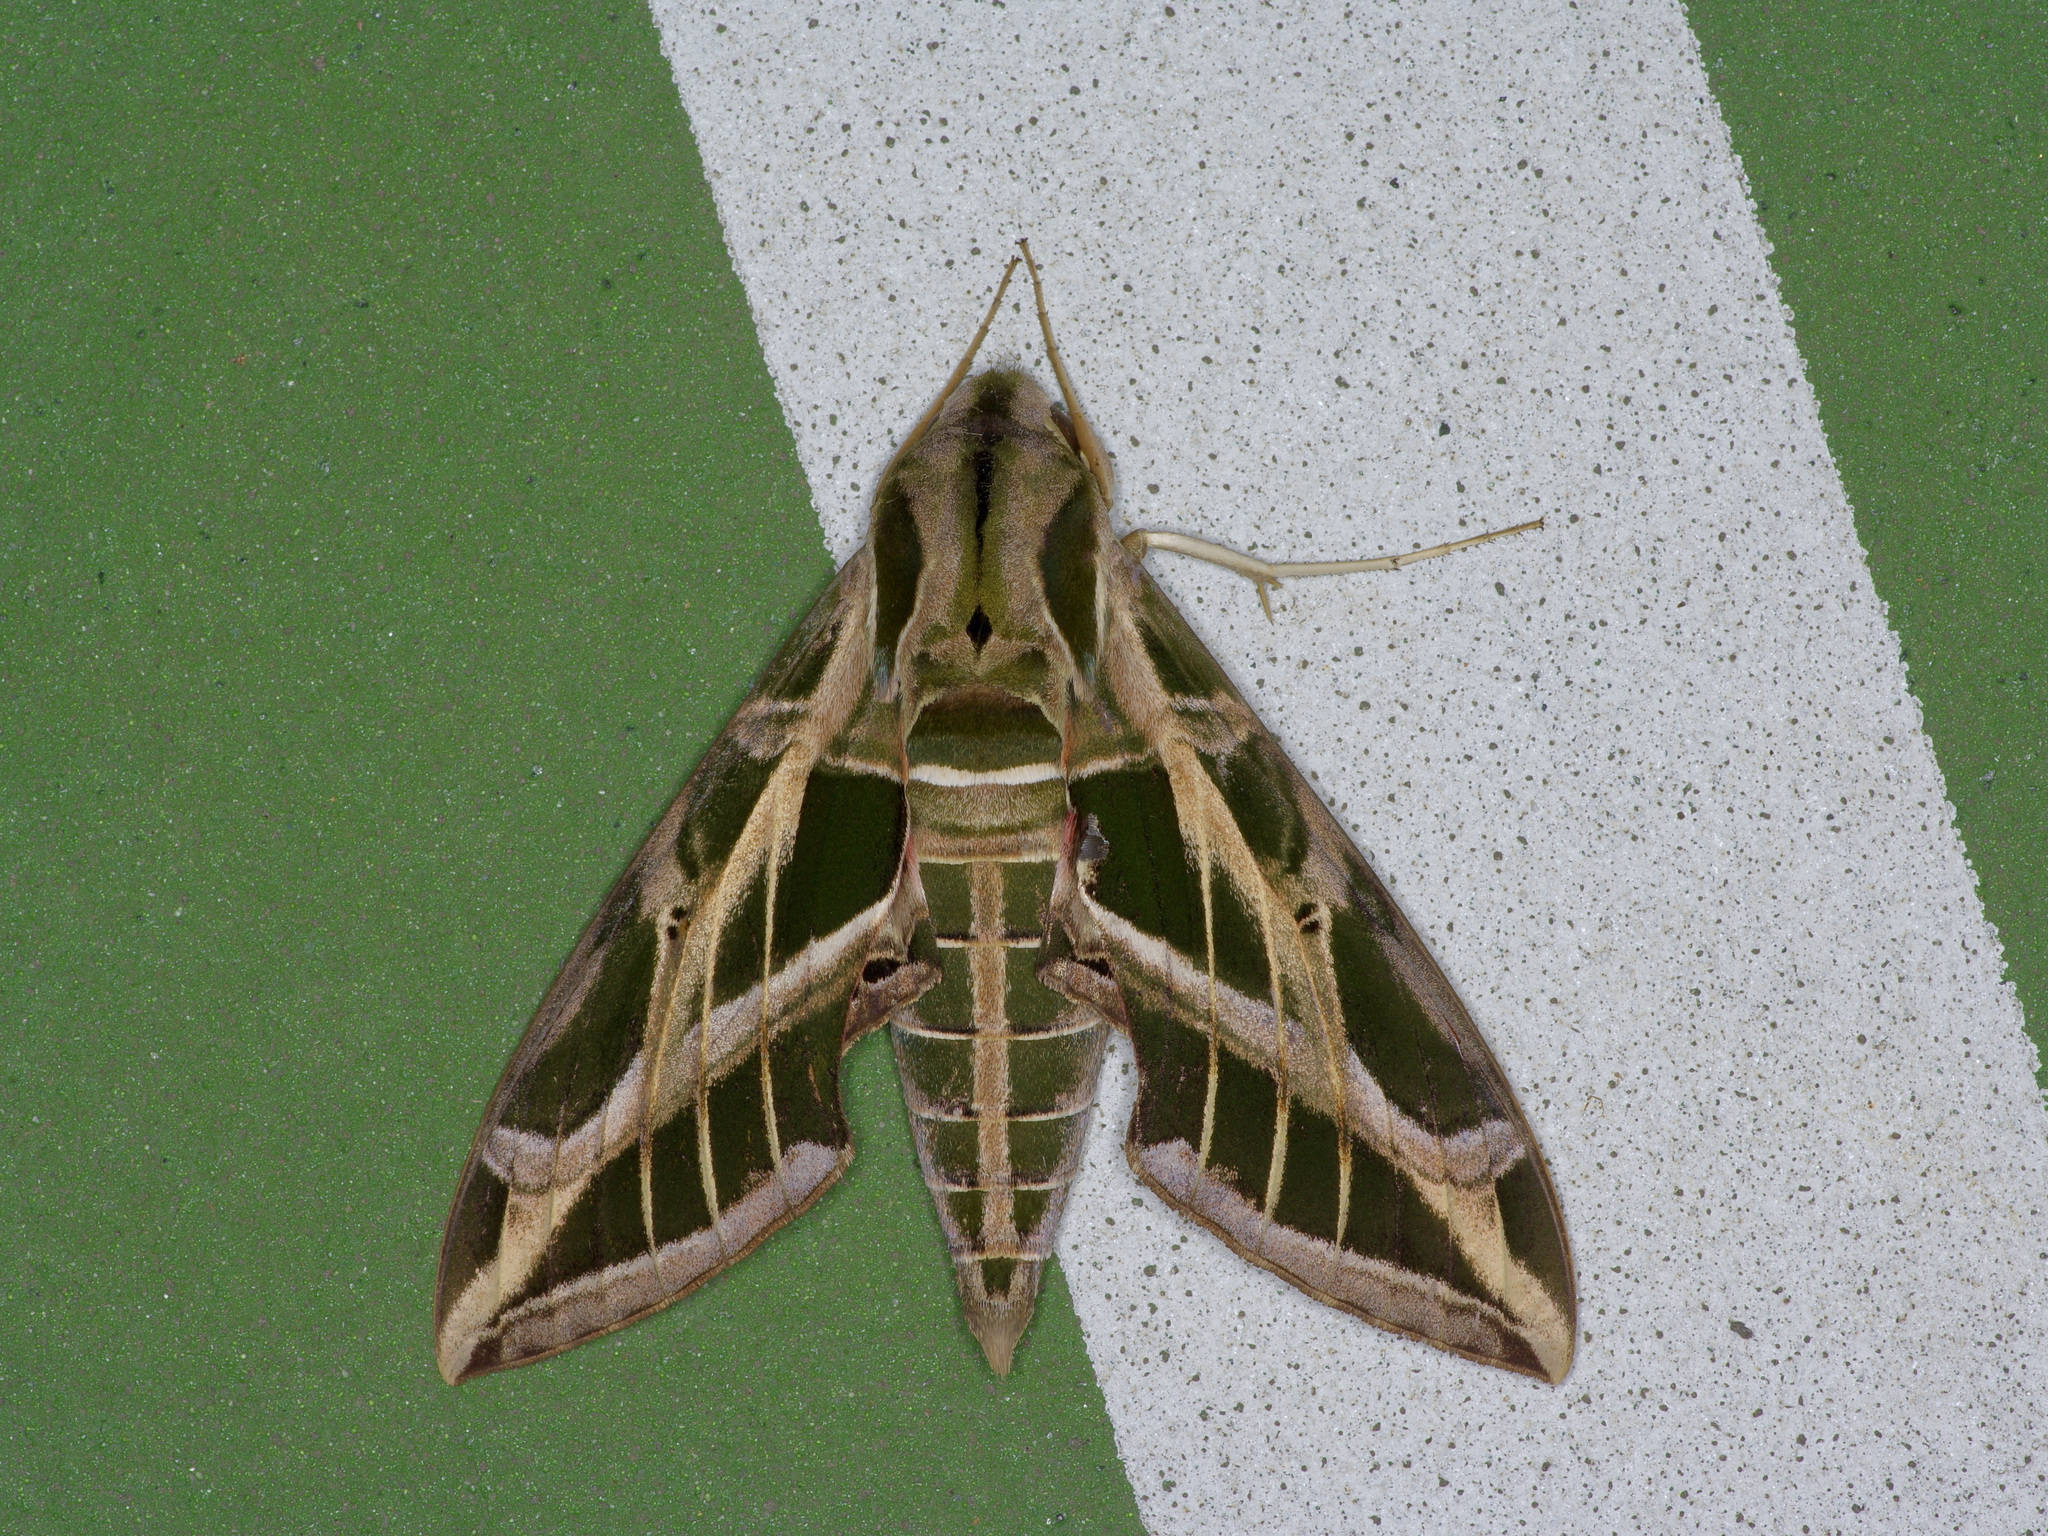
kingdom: Animalia
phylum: Arthropoda
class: Insecta
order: Lepidoptera
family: Sphingidae
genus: Eumorpha
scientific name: Eumorpha vitis
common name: Vine sphinx
